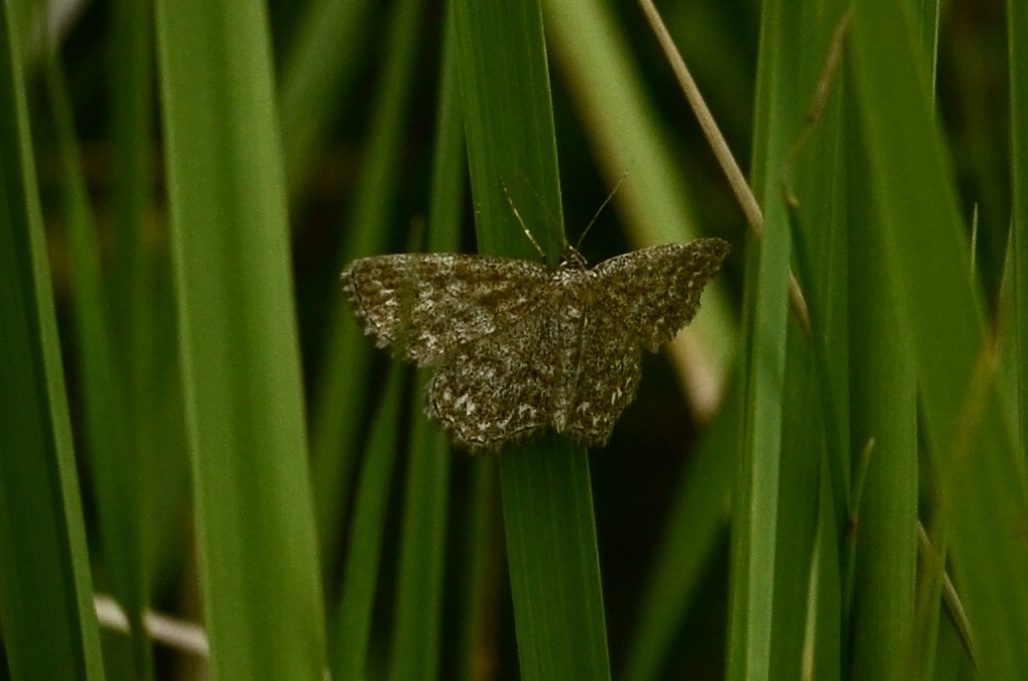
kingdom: Animalia
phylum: Arthropoda
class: Insecta
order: Lepidoptera
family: Geometridae
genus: Scopula
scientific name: Scopula immorata
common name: Lewes wave
